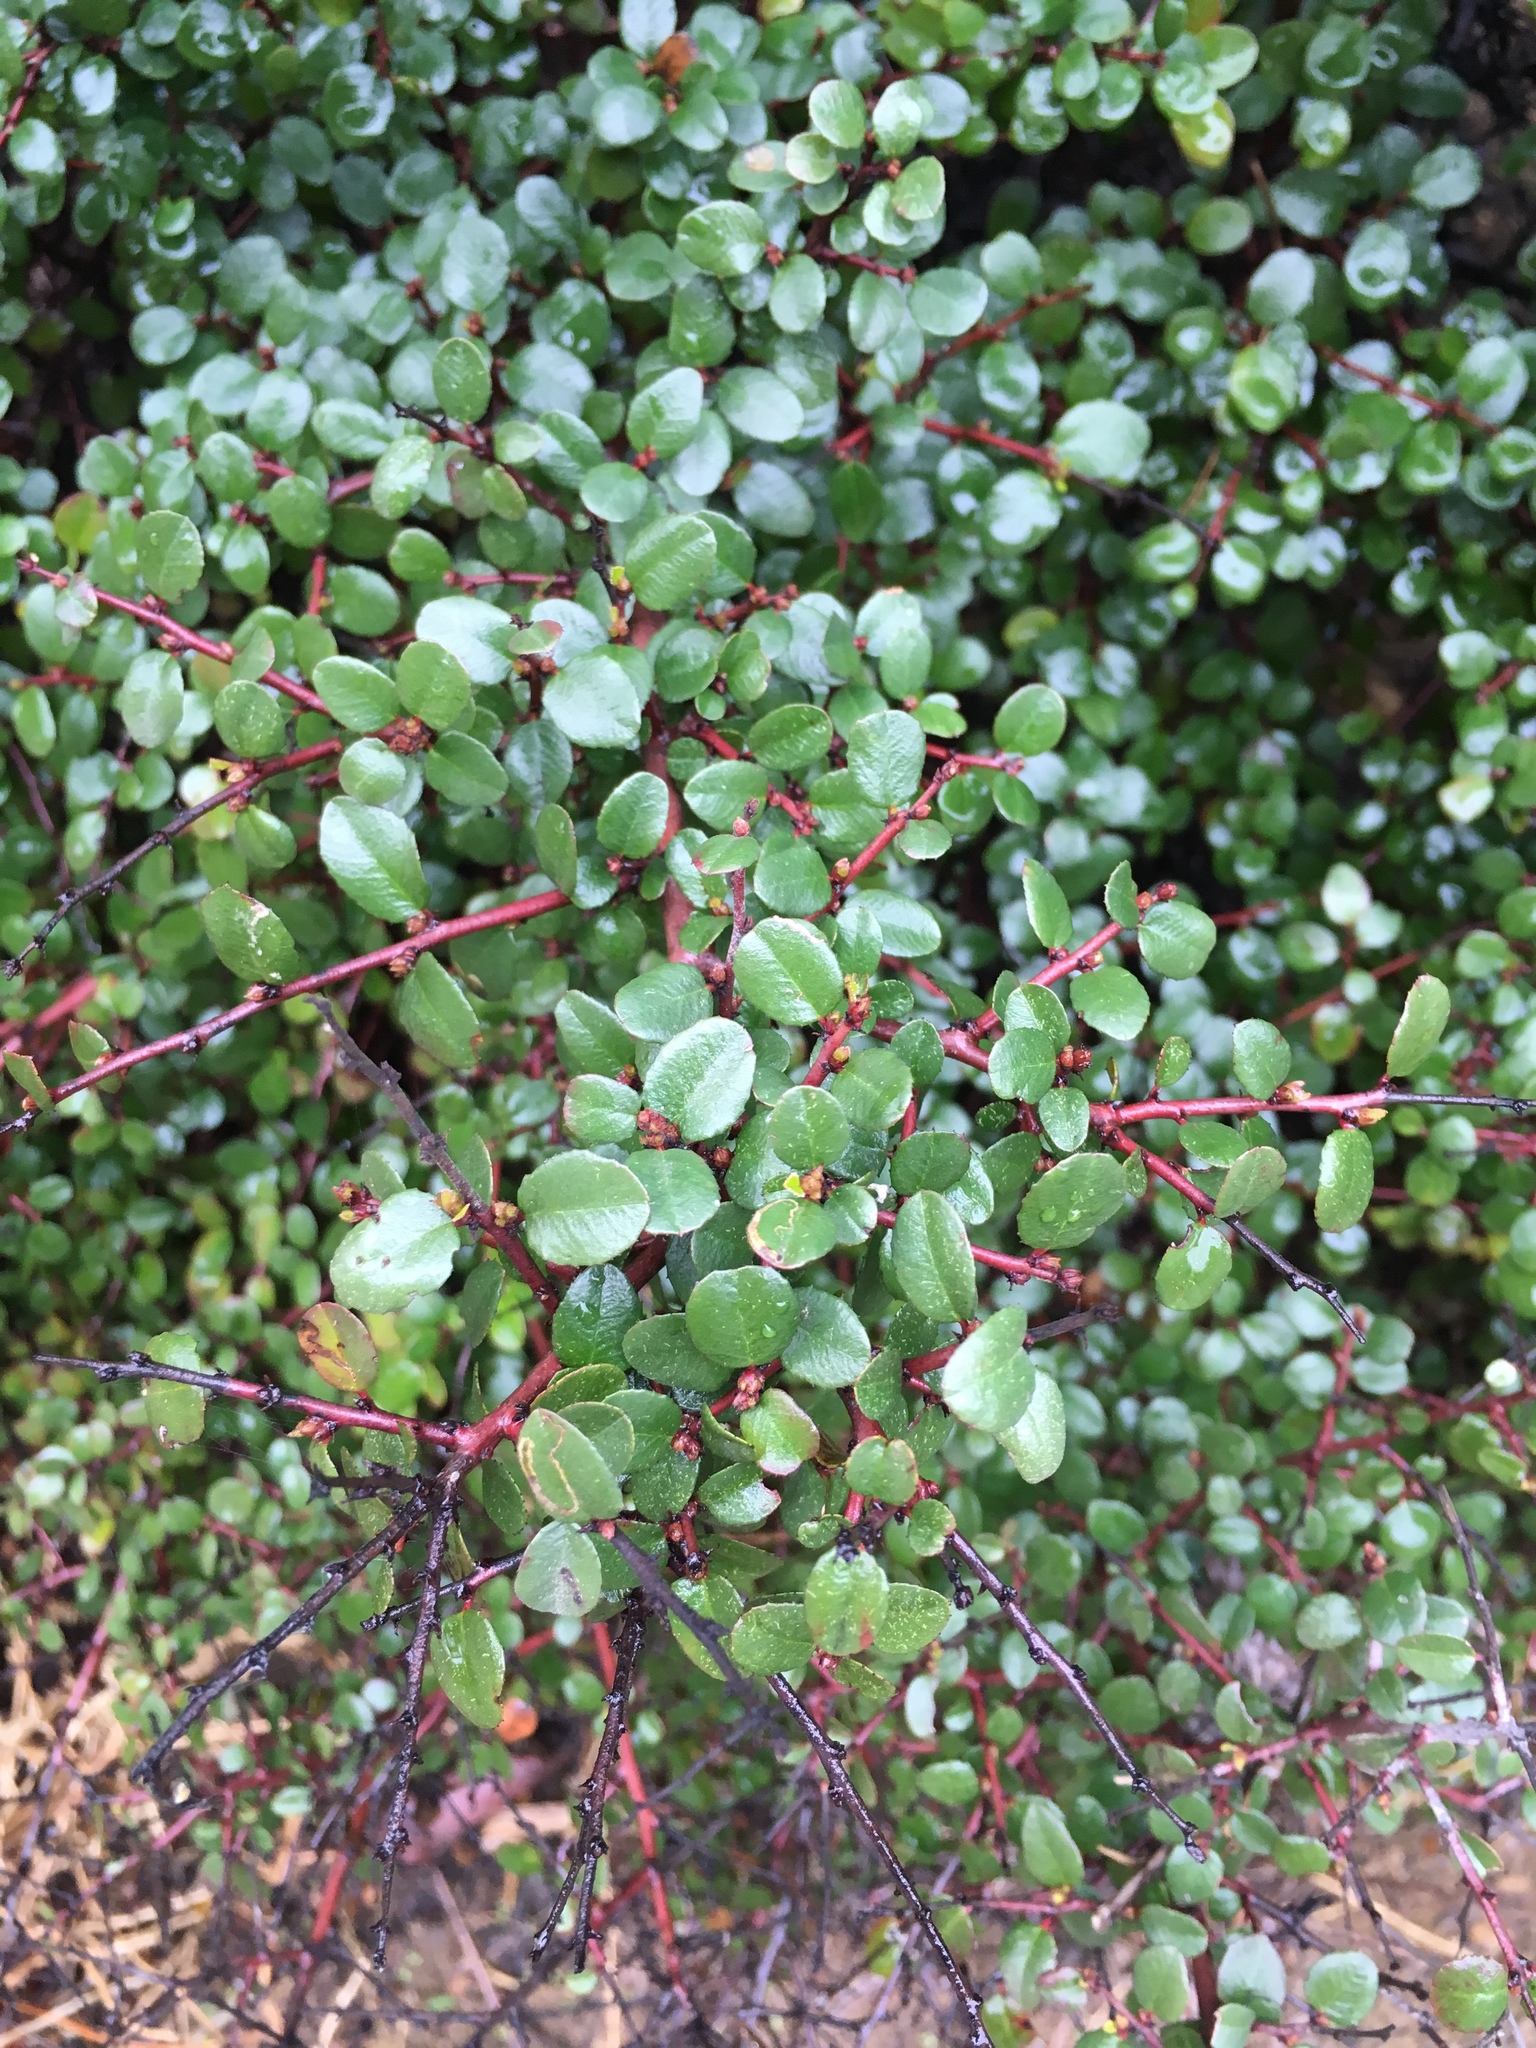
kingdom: Plantae
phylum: Tracheophyta
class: Magnoliopsida
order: Rosales
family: Rhamnaceae
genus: Endotropis
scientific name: Endotropis crocea
